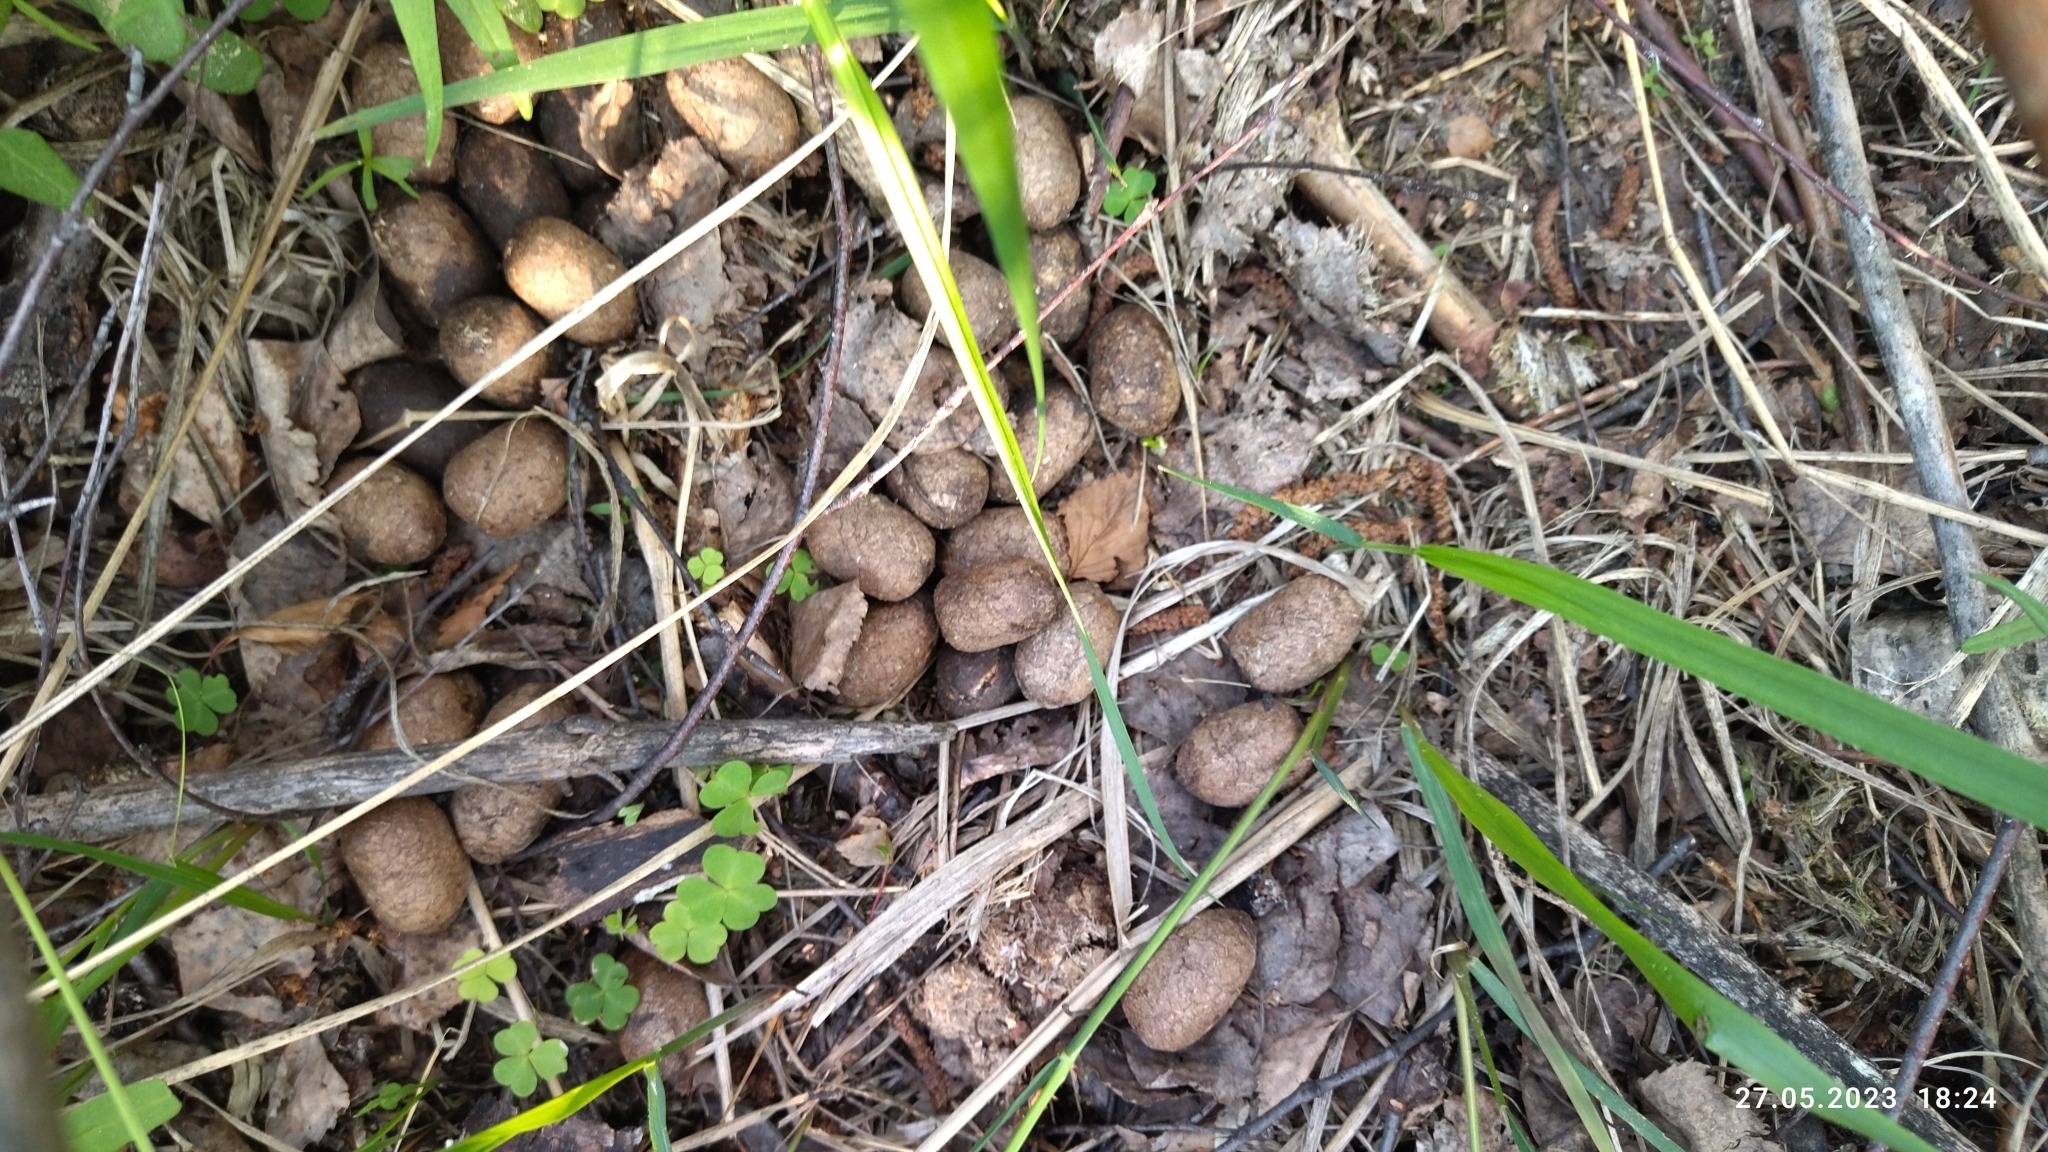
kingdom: Animalia
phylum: Chordata
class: Mammalia
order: Artiodactyla
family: Cervidae
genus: Alces
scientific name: Alces alces
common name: Moose
